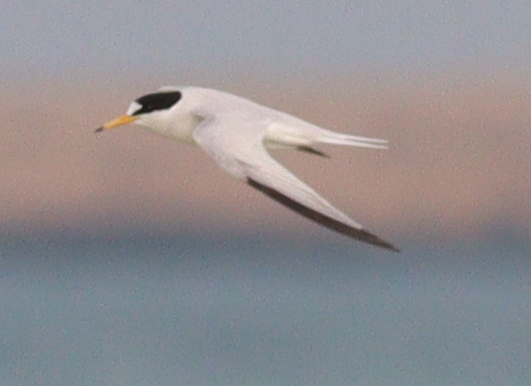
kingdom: Animalia
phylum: Chordata
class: Aves
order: Charadriiformes
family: Laridae
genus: Sternula
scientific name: Sternula saundersi
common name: Saunders's tern
